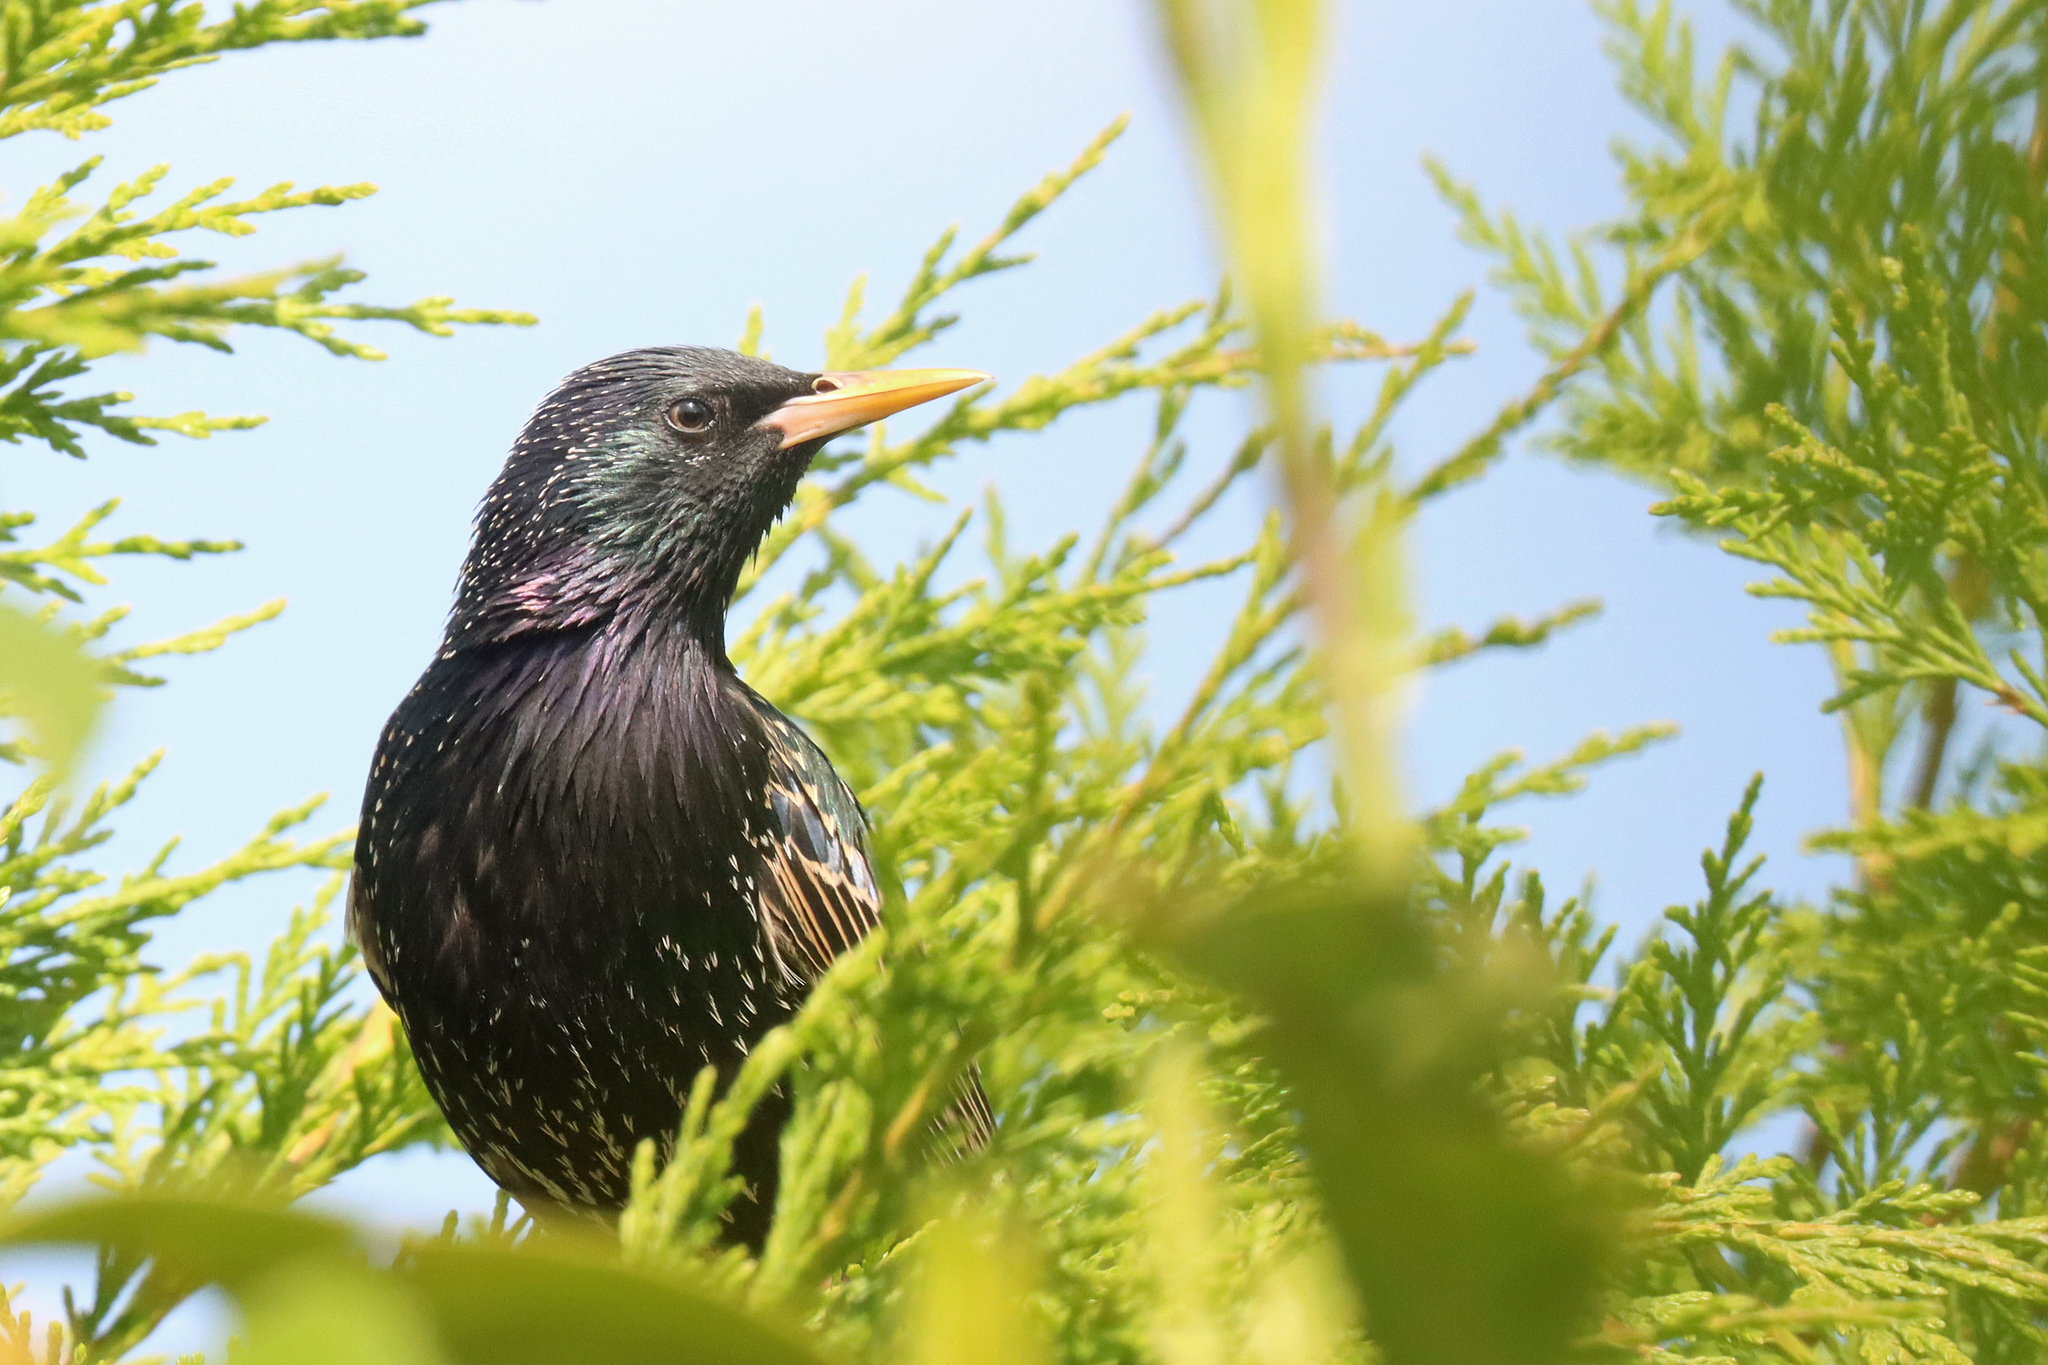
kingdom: Animalia
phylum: Chordata
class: Aves
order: Passeriformes
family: Sturnidae
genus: Sturnus
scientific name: Sturnus vulgaris
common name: Common starling
